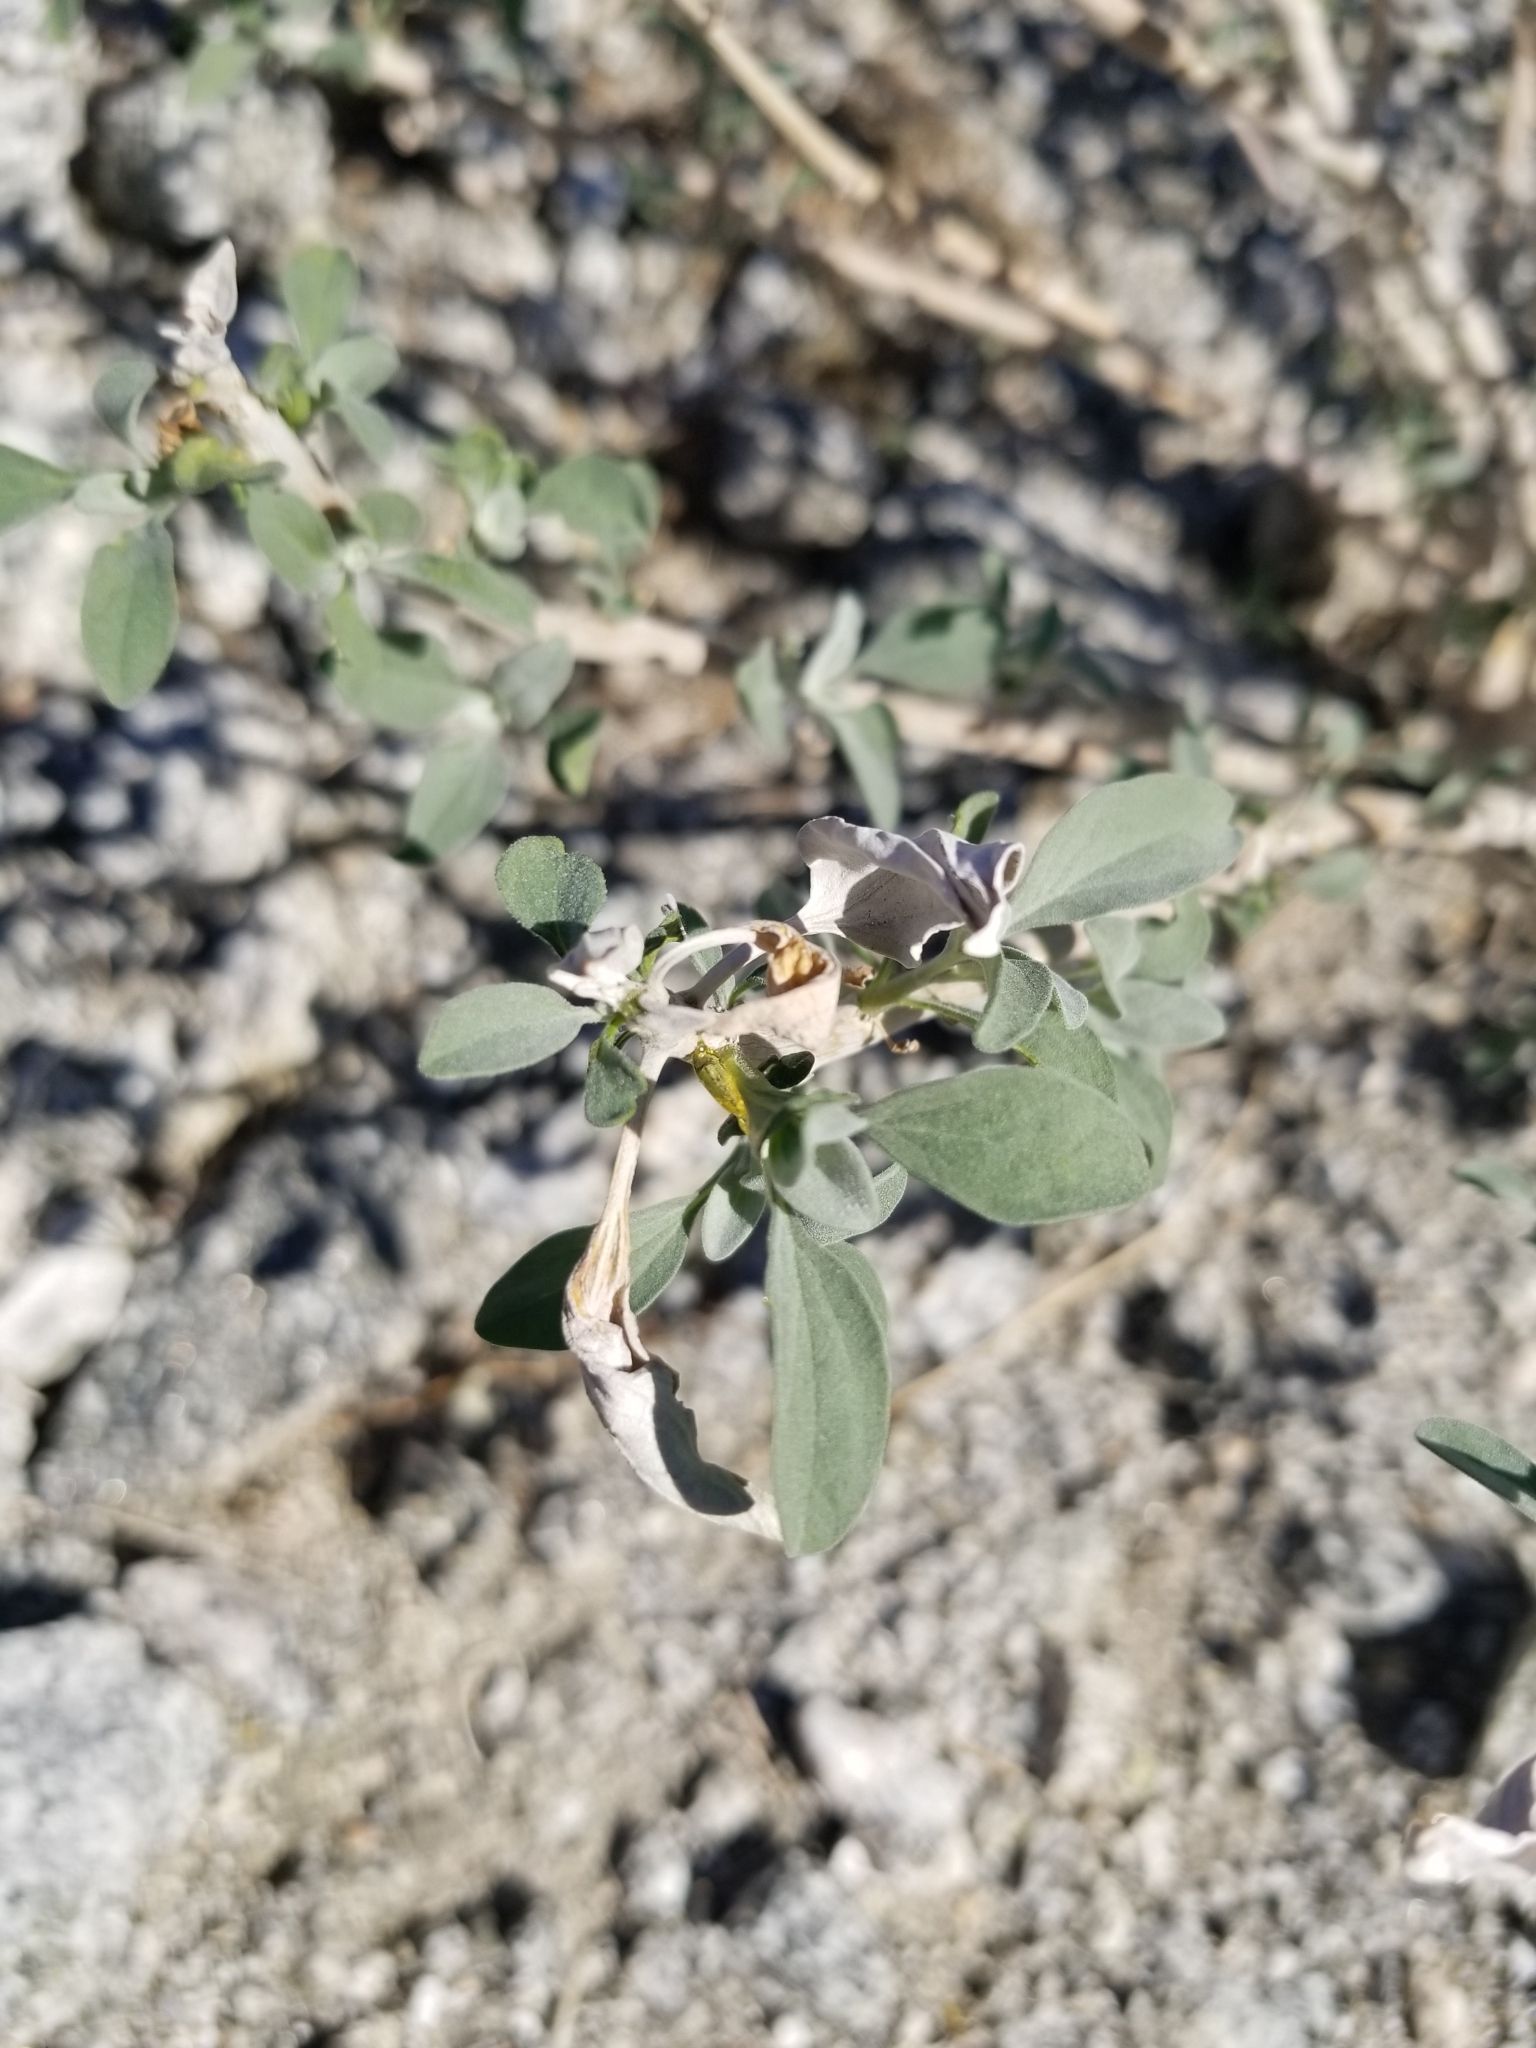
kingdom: Plantae
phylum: Tracheophyta
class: Magnoliopsida
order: Asterales
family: Asteraceae
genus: Encelia
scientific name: Encelia farinosa
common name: Brittlebush
